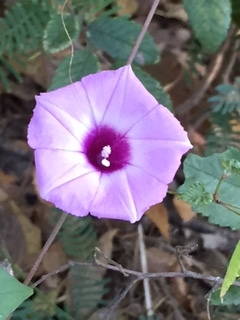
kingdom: Plantae
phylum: Tracheophyta
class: Magnoliopsida
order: Solanales
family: Convolvulaceae
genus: Ipomoea
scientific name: Ipomoea cordatotriloba
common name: Cotton morning glory
